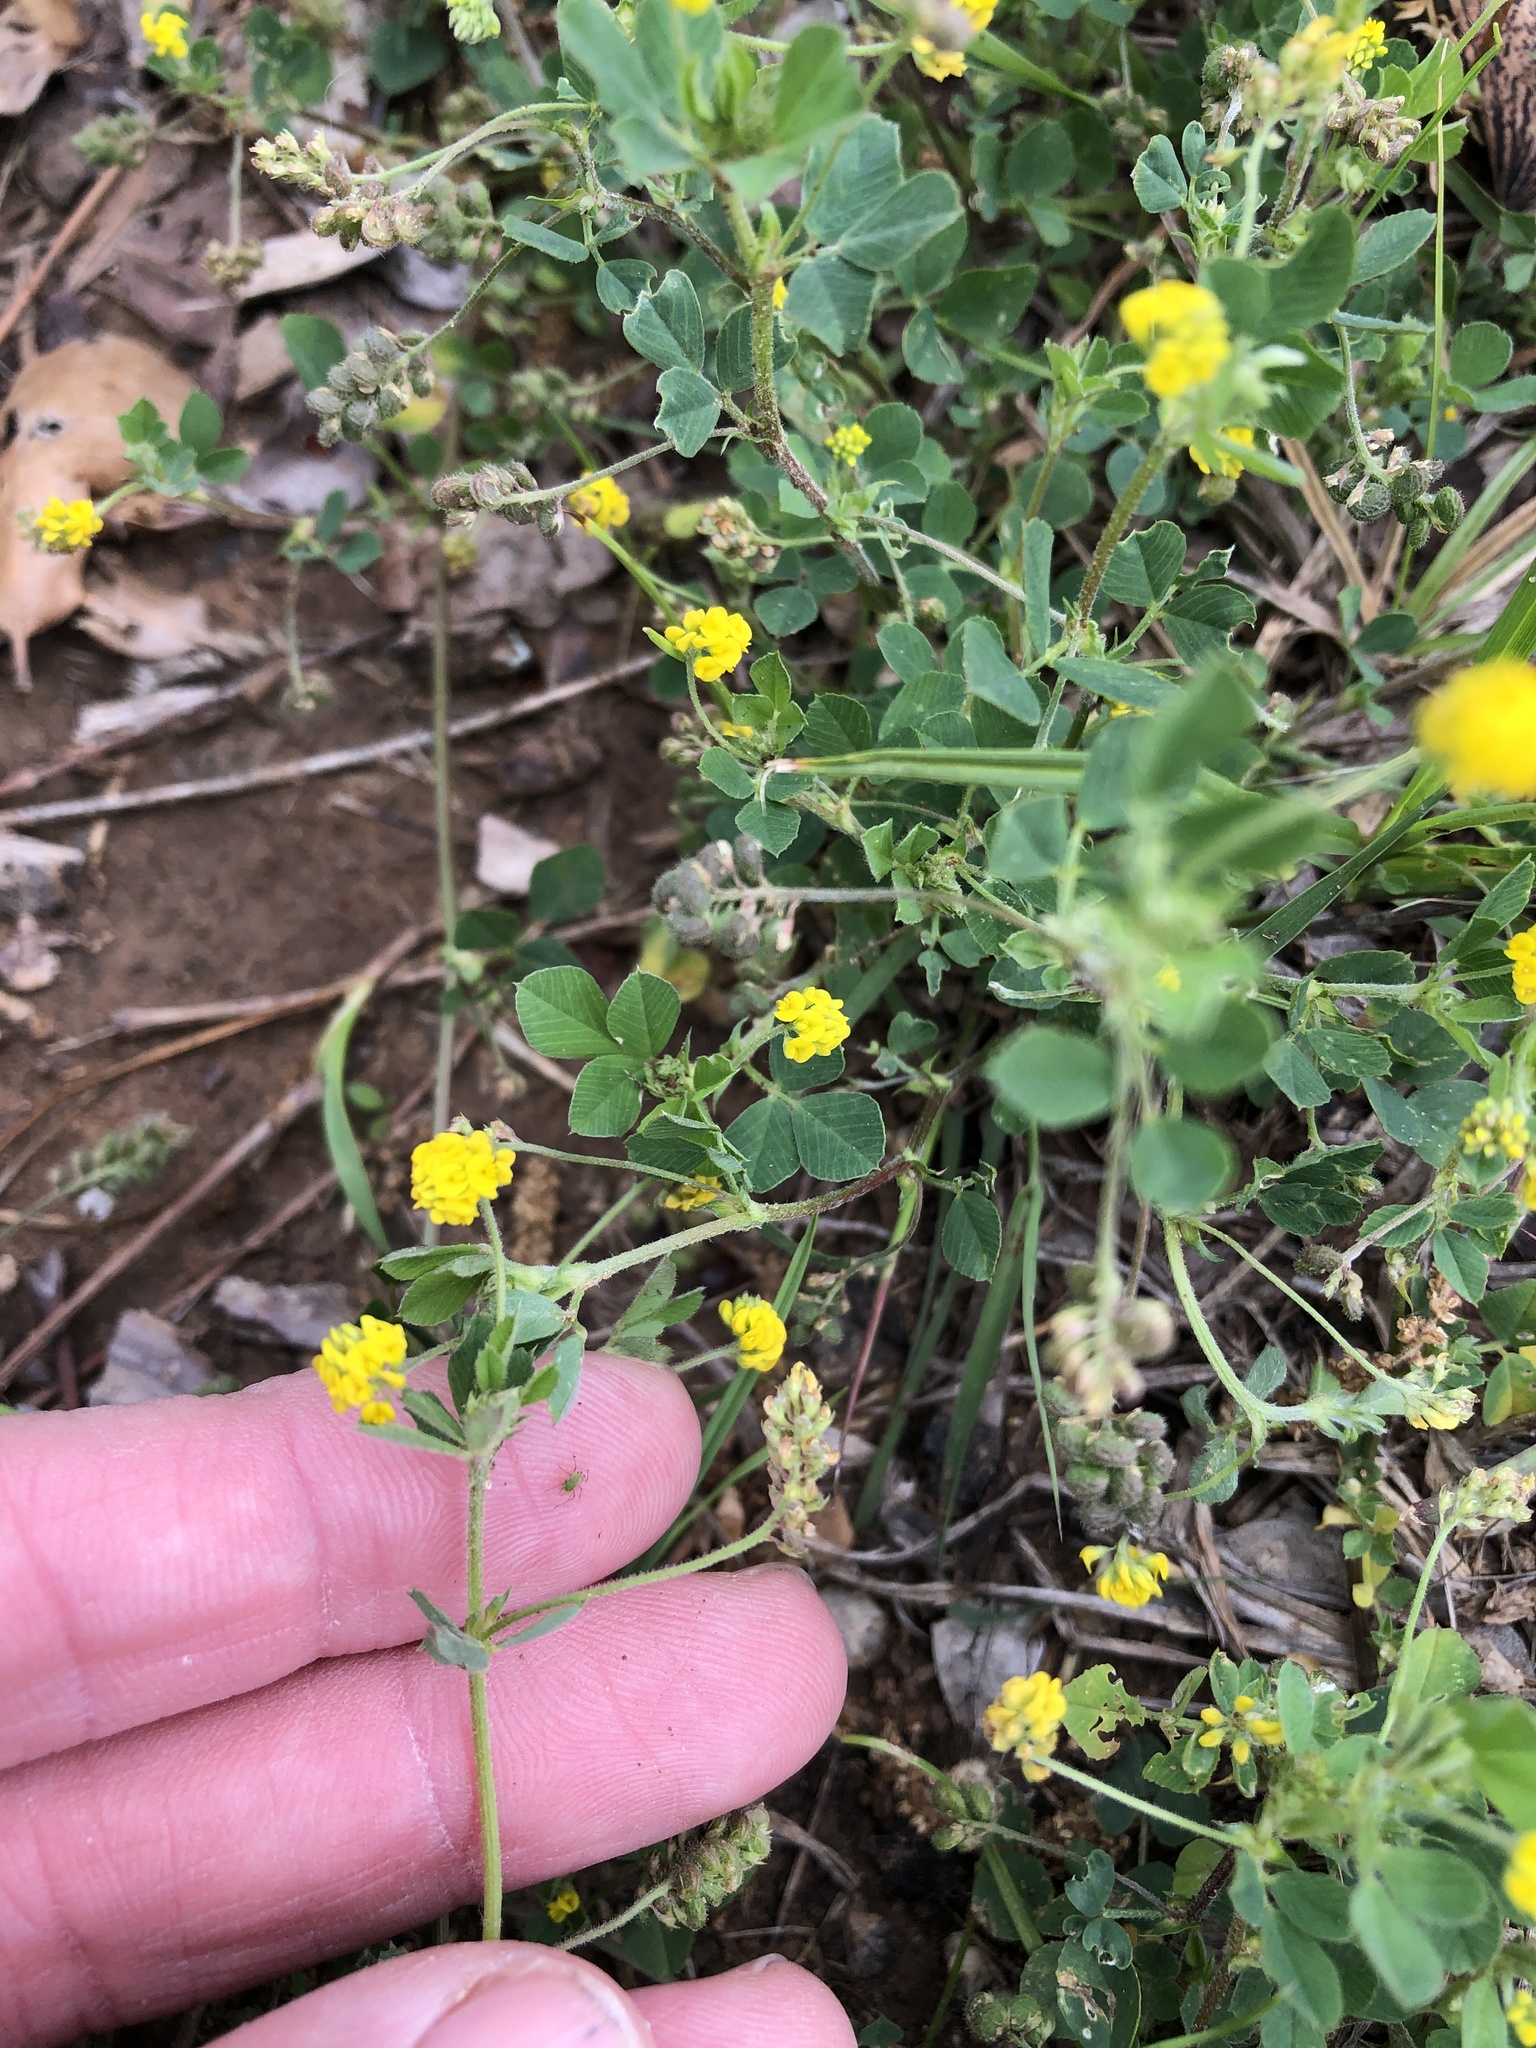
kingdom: Plantae
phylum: Tracheophyta
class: Magnoliopsida
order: Fabales
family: Fabaceae
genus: Medicago
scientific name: Medicago lupulina
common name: Black medick
